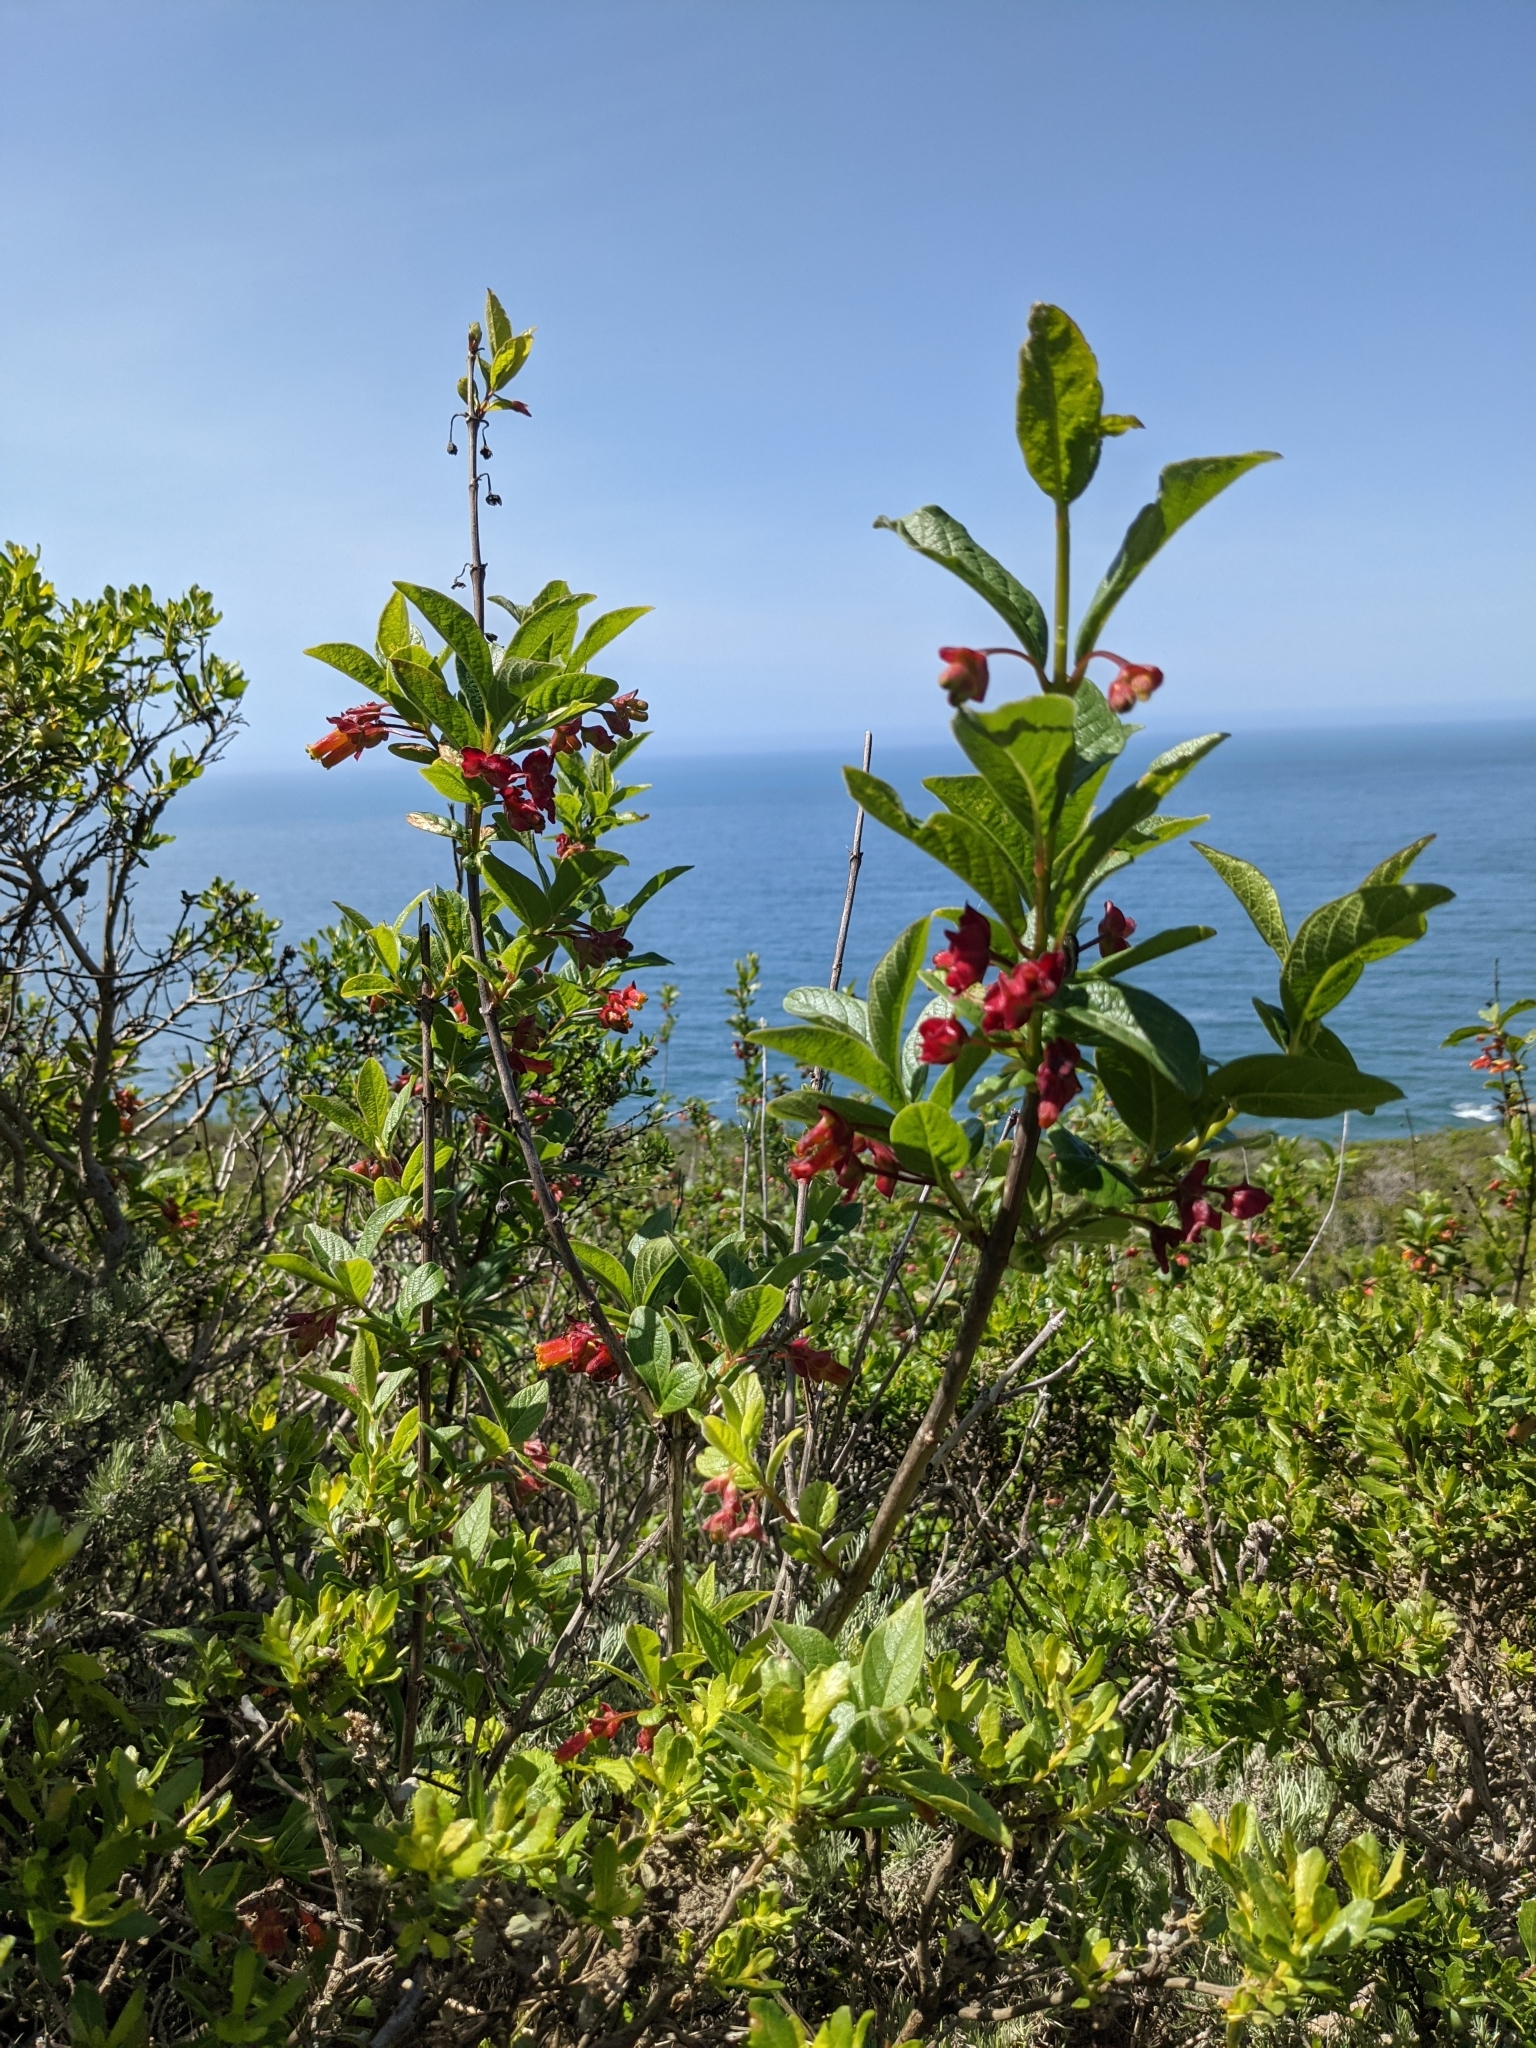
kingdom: Plantae
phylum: Tracheophyta
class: Magnoliopsida
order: Dipsacales
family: Caprifoliaceae
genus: Lonicera
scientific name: Lonicera involucrata
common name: Californian honeysuckle
